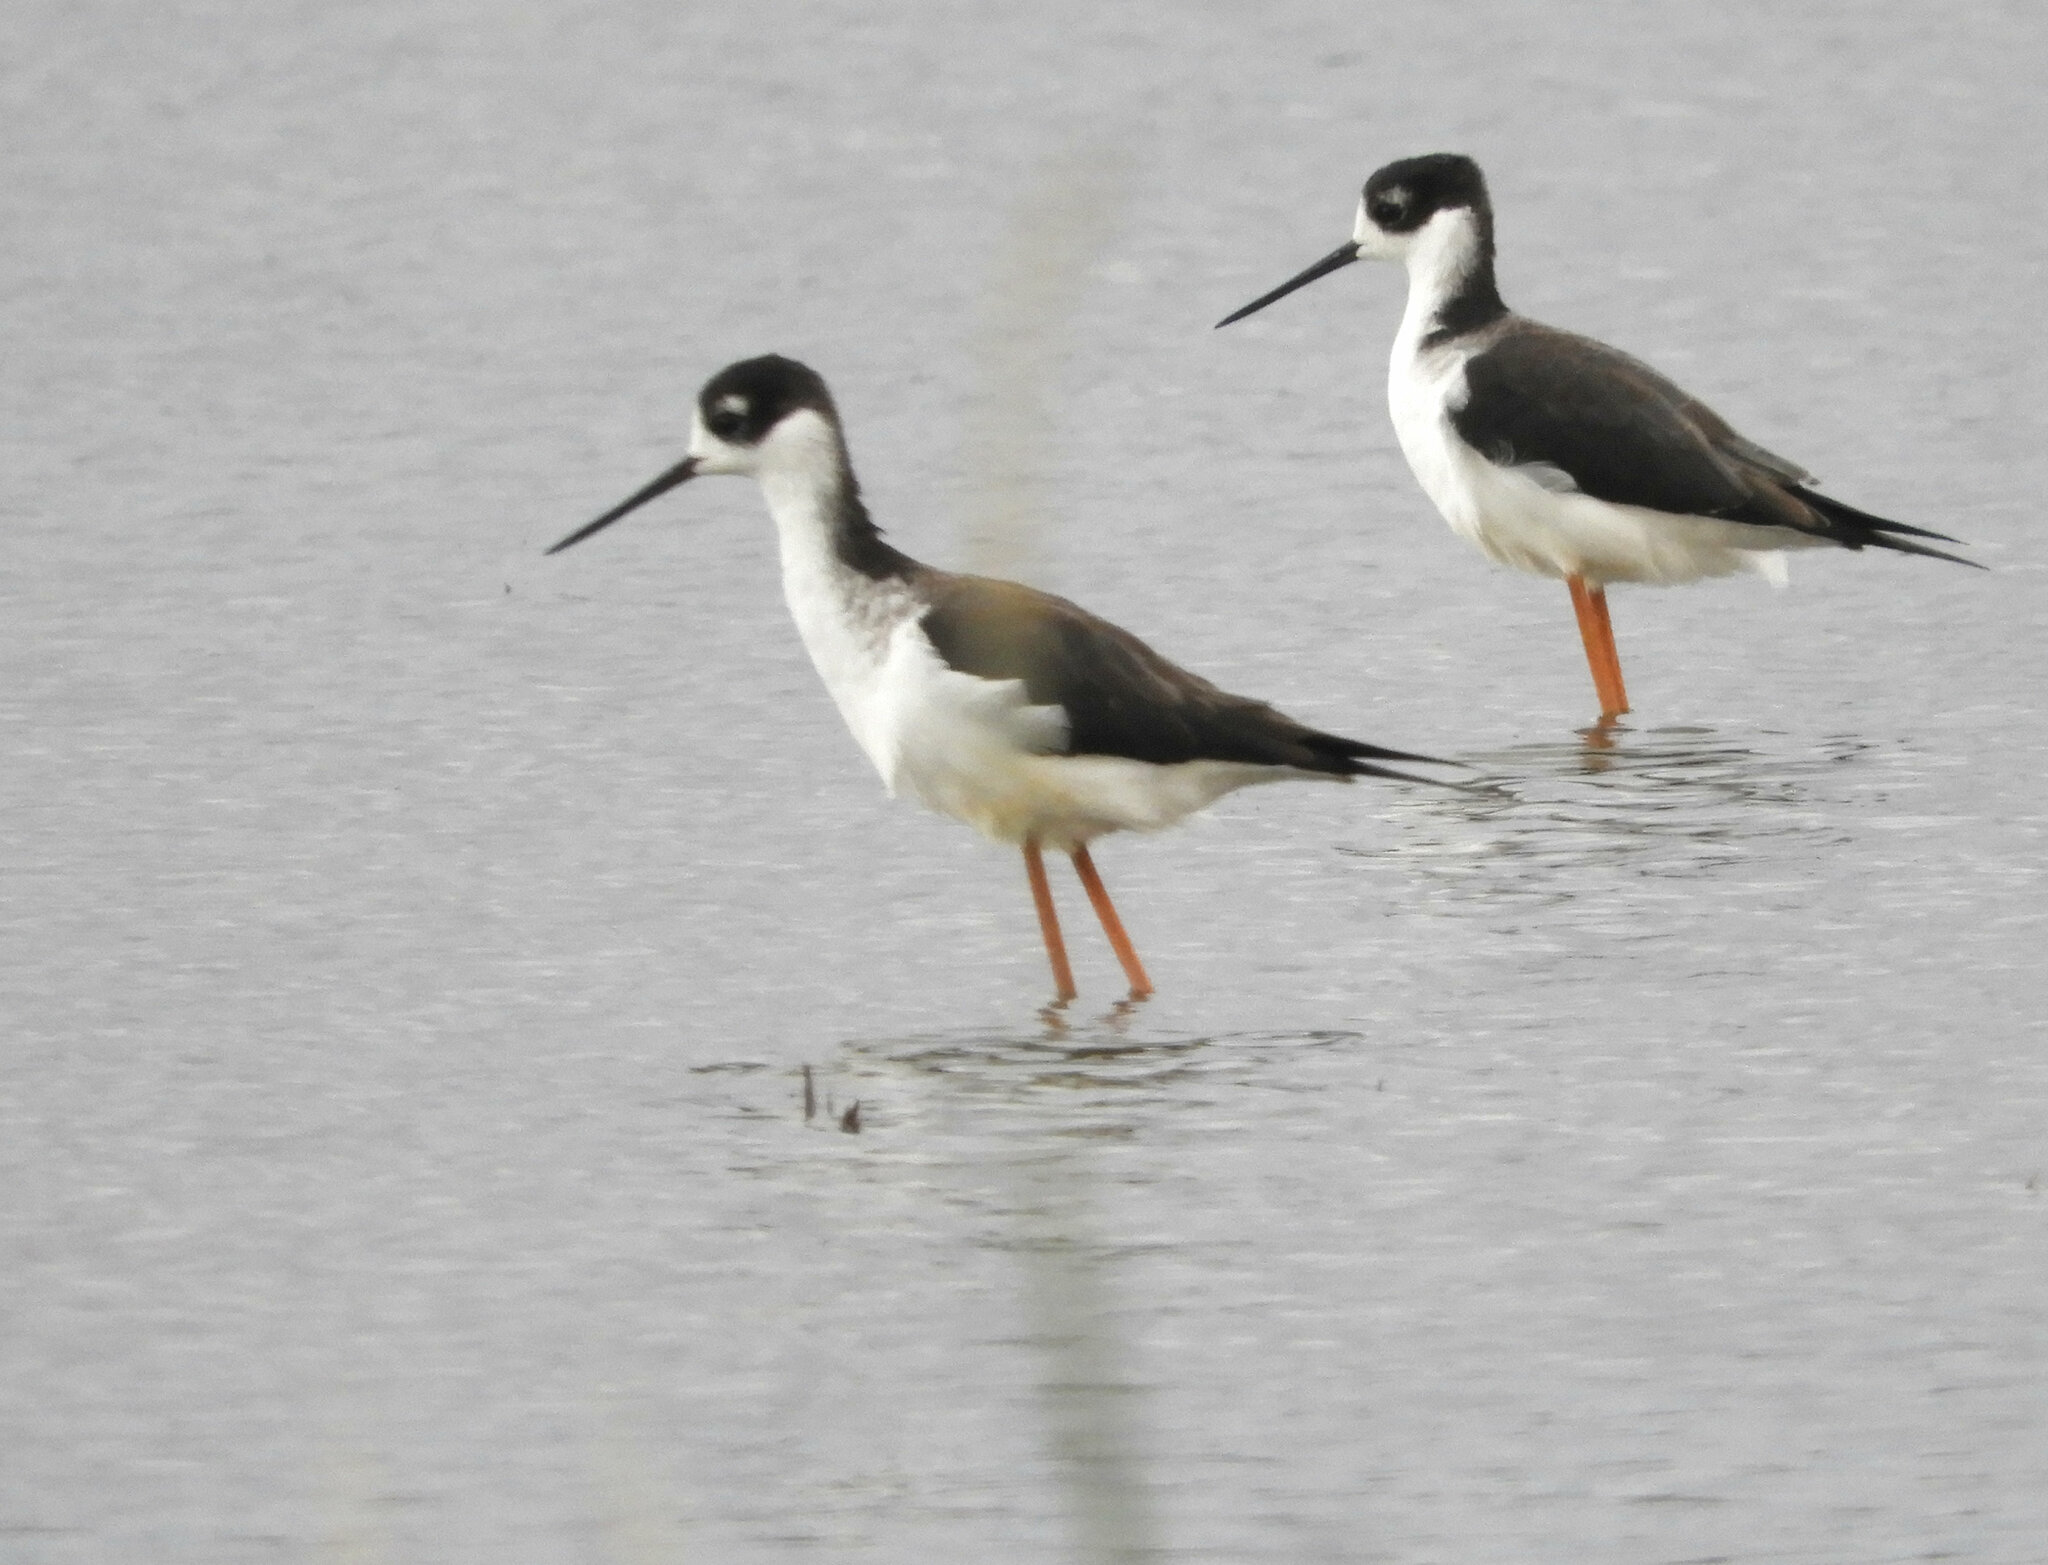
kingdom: Animalia
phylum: Chordata
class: Aves
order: Charadriiformes
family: Recurvirostridae
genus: Himantopus
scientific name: Himantopus mexicanus
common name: Black-necked stilt
